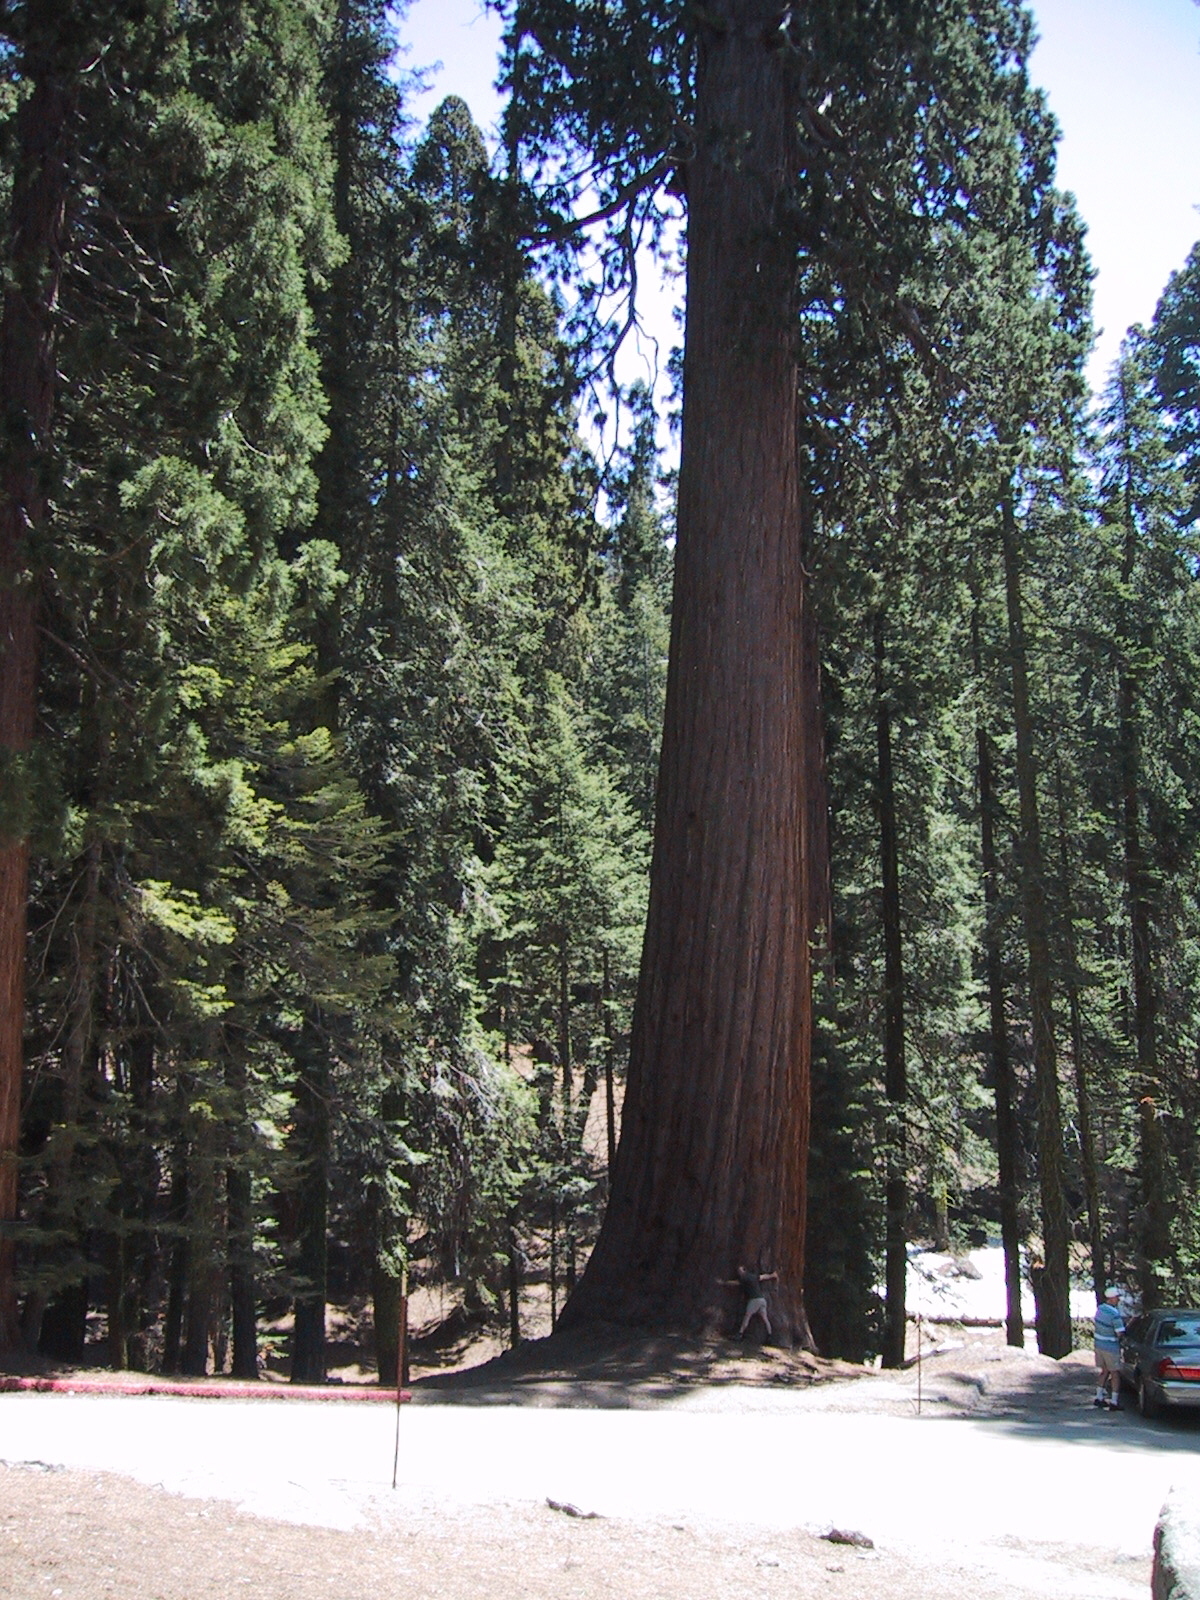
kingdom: Plantae
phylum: Tracheophyta
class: Pinopsida
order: Pinales
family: Cupressaceae
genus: Sequoiadendron
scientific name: Sequoiadendron giganteum
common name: Wellingtonia
